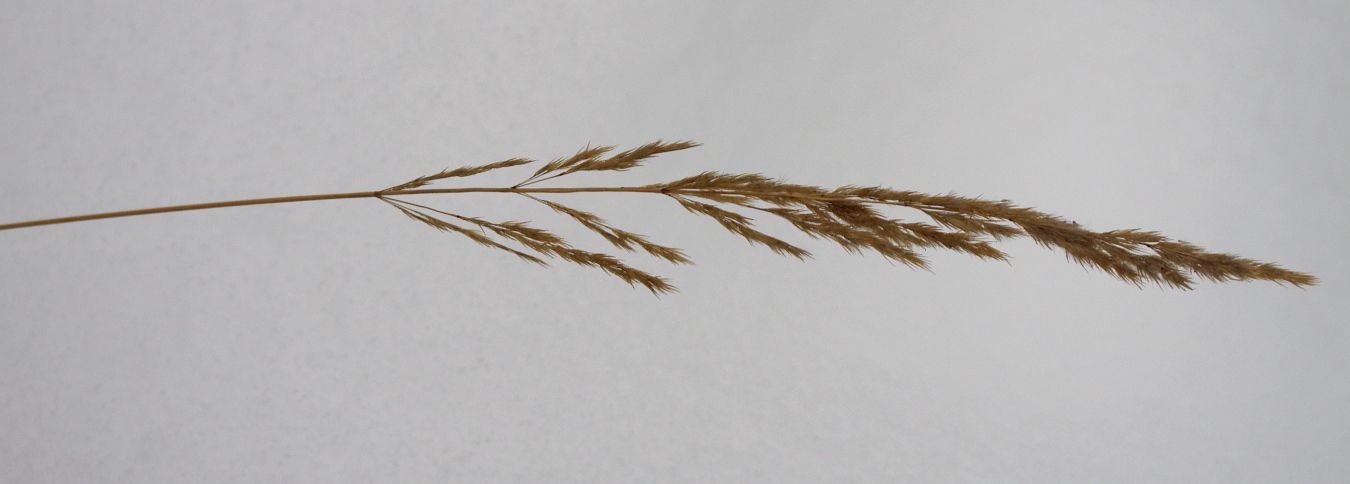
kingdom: Plantae
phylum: Tracheophyta
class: Liliopsida
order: Poales
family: Poaceae
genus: Calamagrostis
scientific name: Calamagrostis epigejos
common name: Wood small-reed
